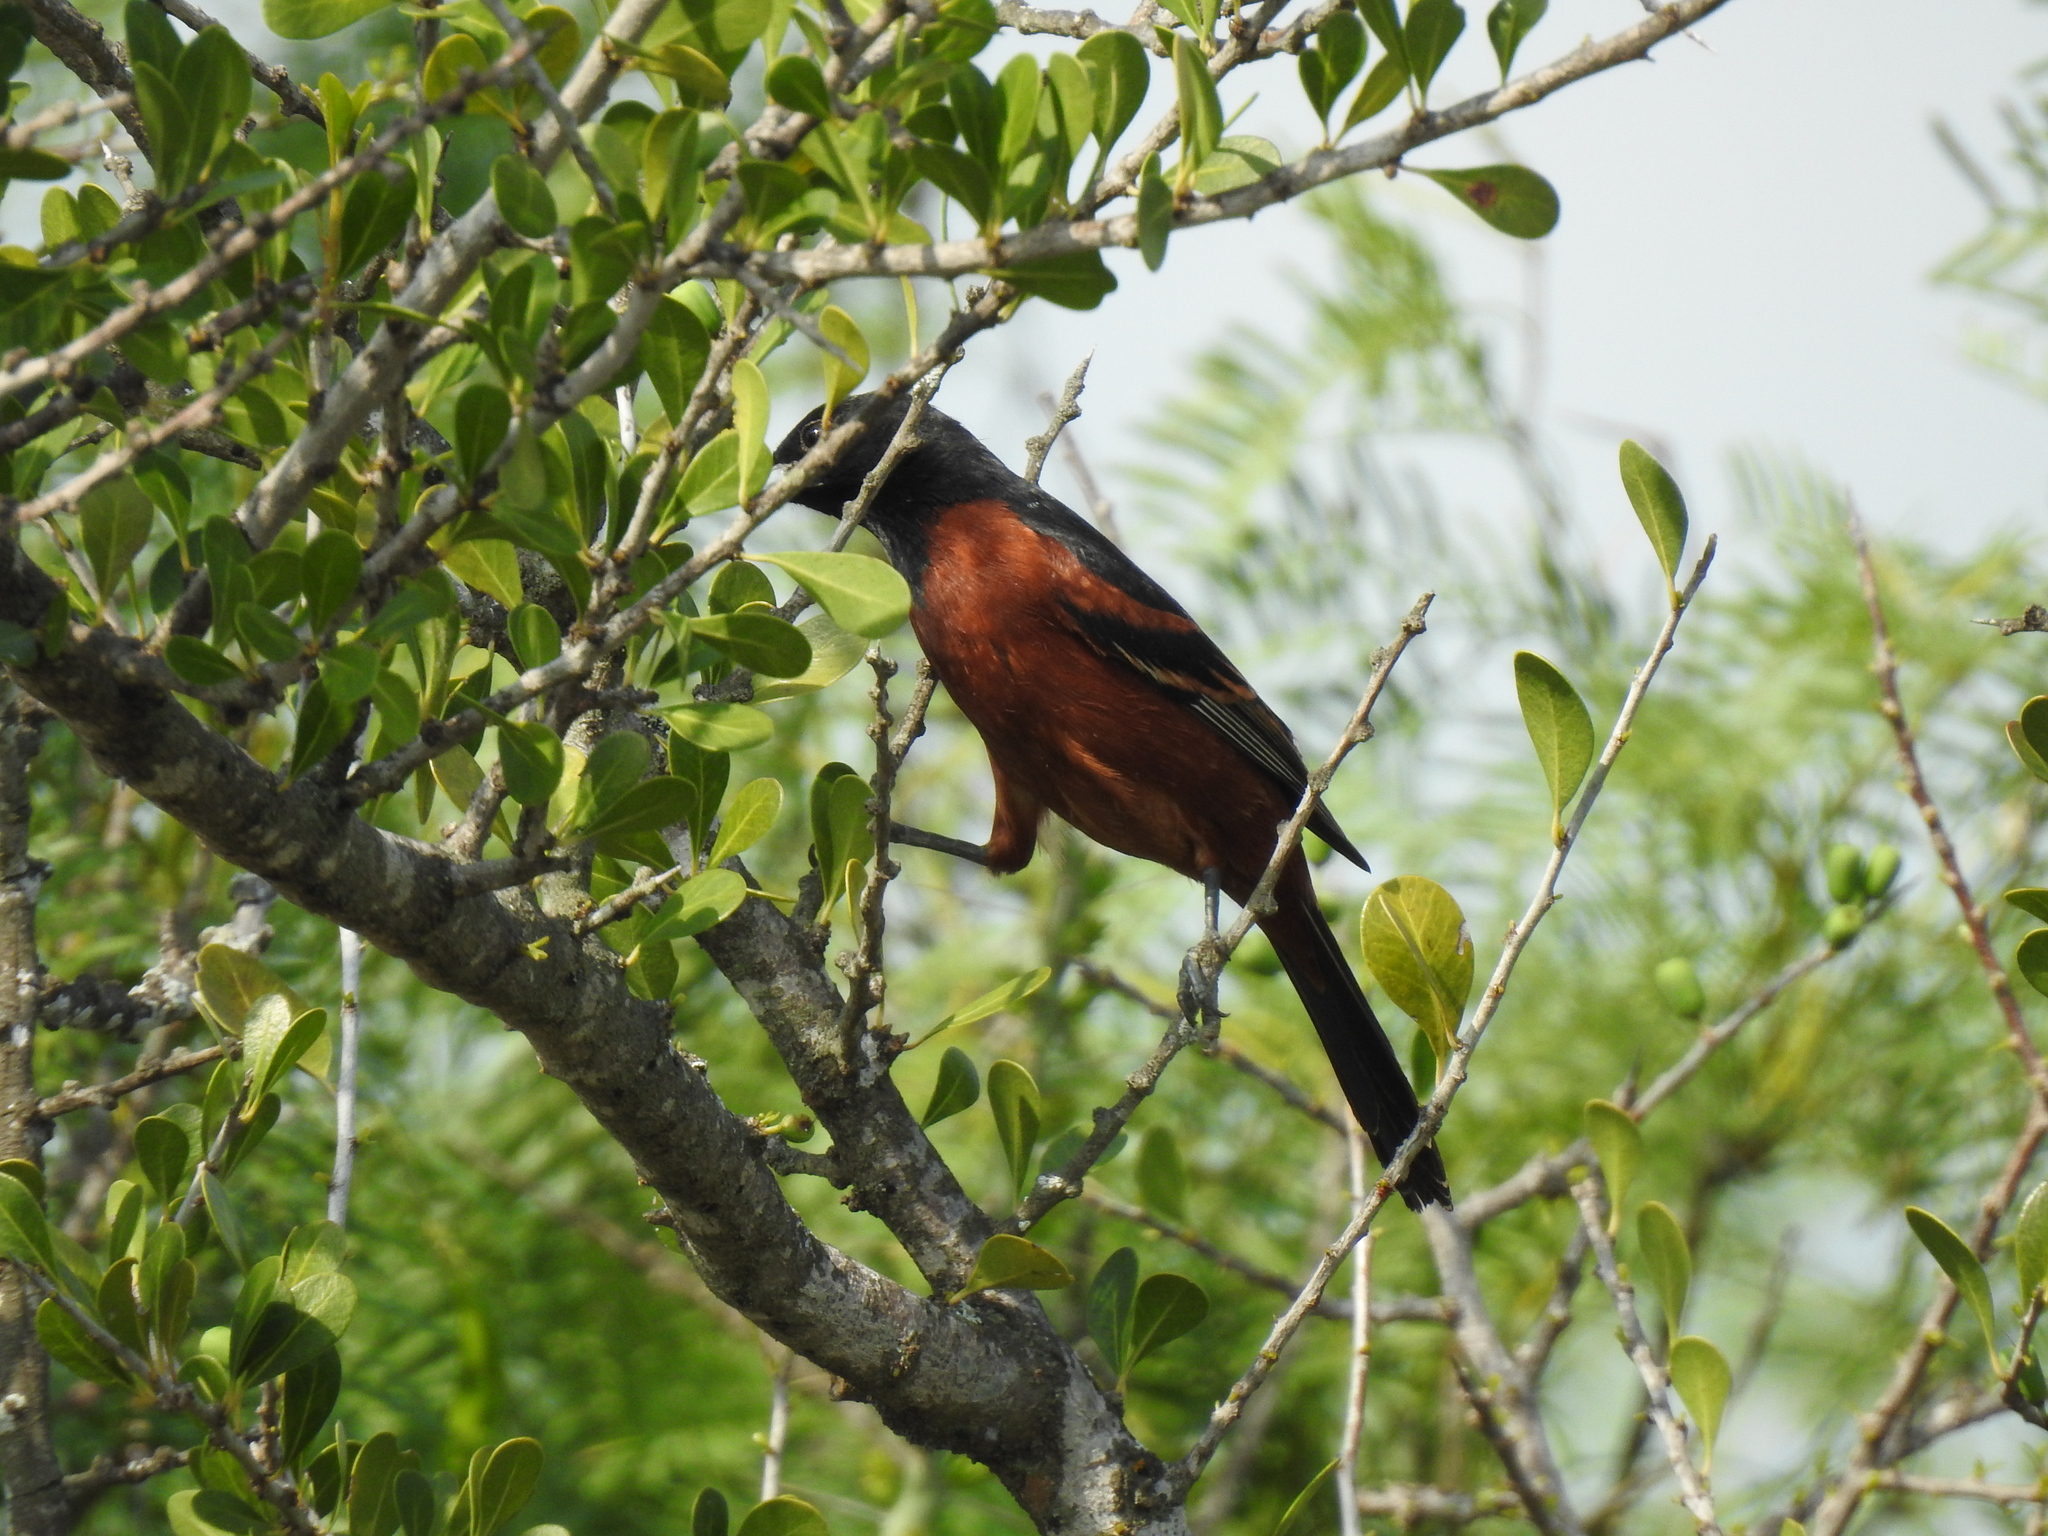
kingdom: Animalia
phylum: Chordata
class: Aves
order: Passeriformes
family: Icteridae
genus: Icterus
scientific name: Icterus spurius
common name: Orchard oriole
